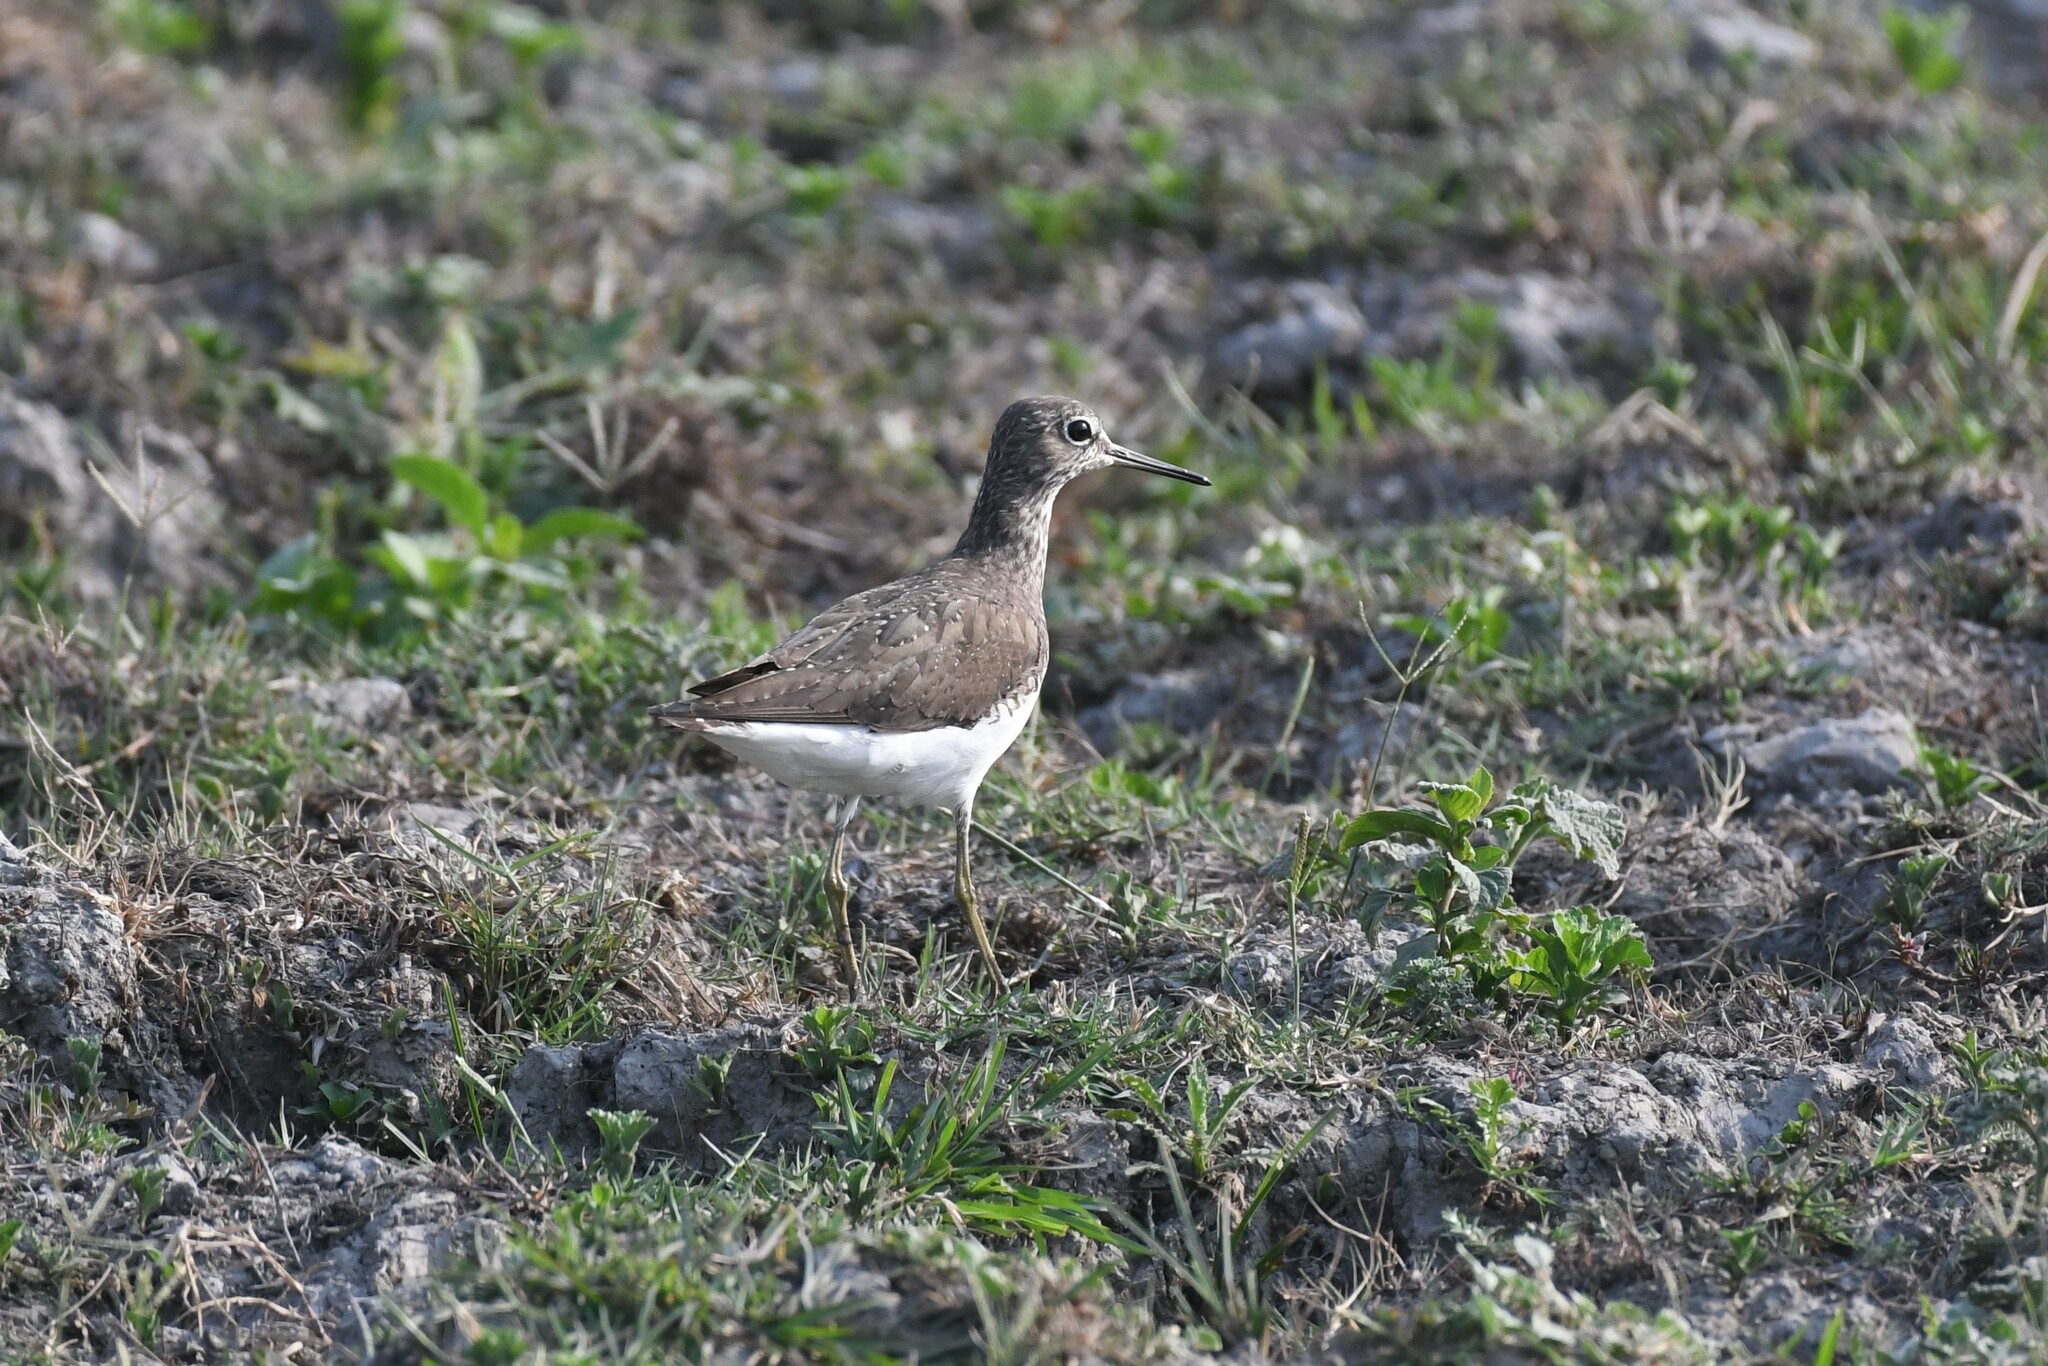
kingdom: Animalia
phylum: Chordata
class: Aves
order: Charadriiformes
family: Scolopacidae
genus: Tringa
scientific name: Tringa ochropus
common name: Green sandpiper
